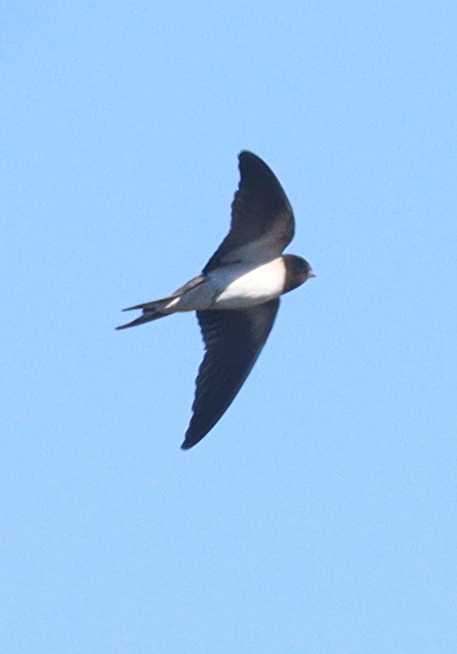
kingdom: Animalia
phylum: Chordata
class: Aves
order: Passeriformes
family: Hirundinidae
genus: Hirundo
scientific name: Hirundo rustica
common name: Barn swallow
